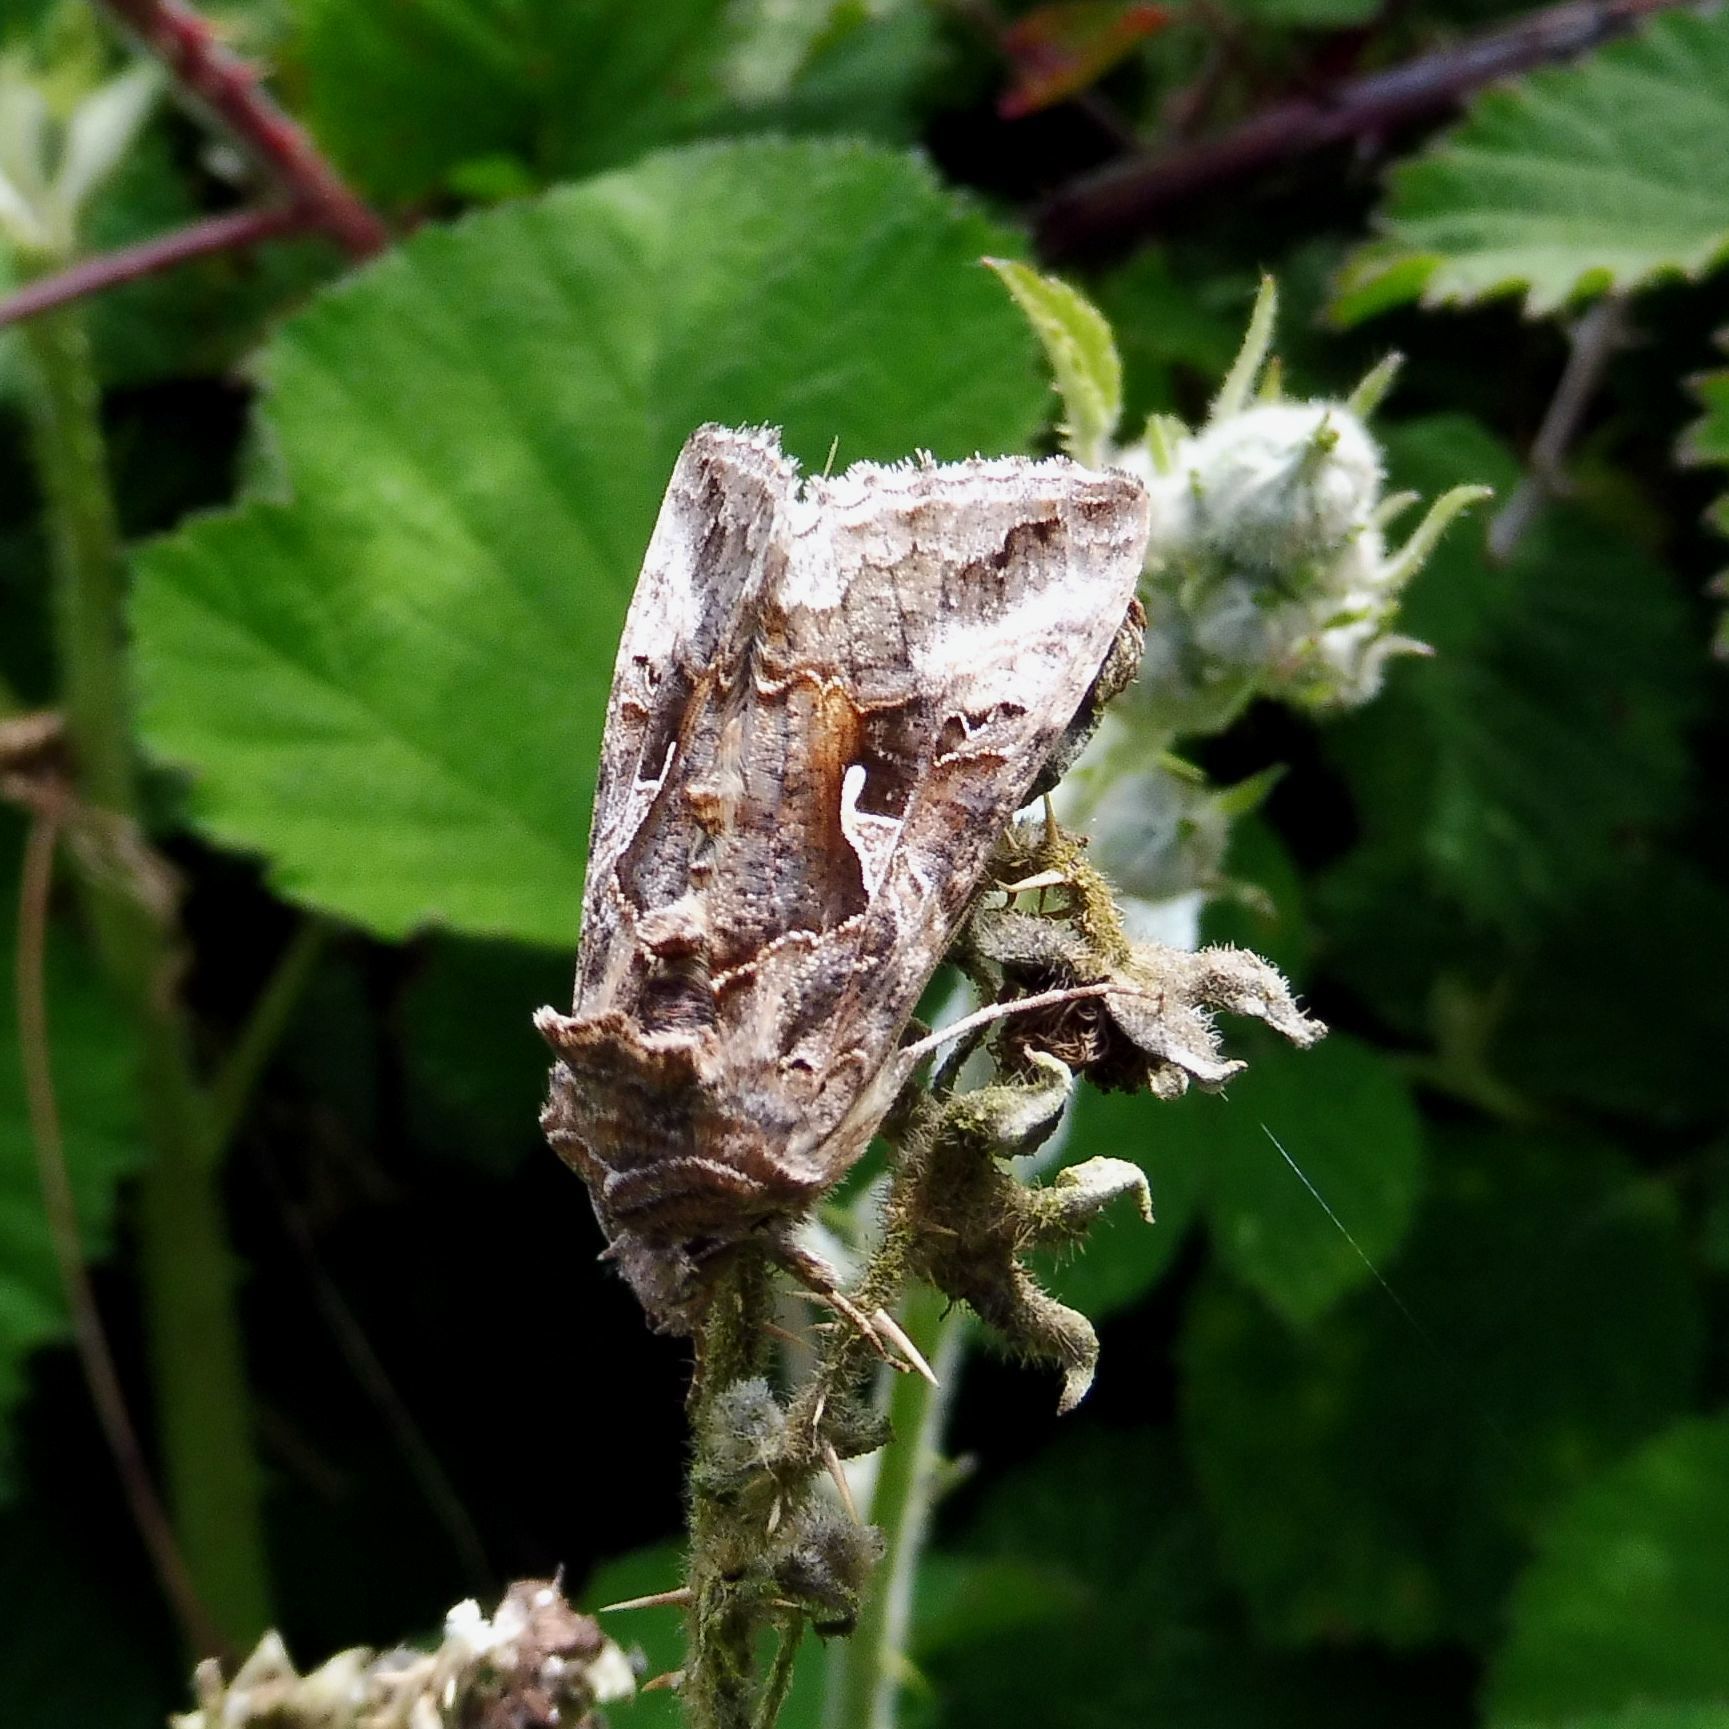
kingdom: Animalia
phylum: Arthropoda
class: Insecta
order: Lepidoptera
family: Noctuidae
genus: Autographa
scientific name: Autographa gamma
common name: Silver y
